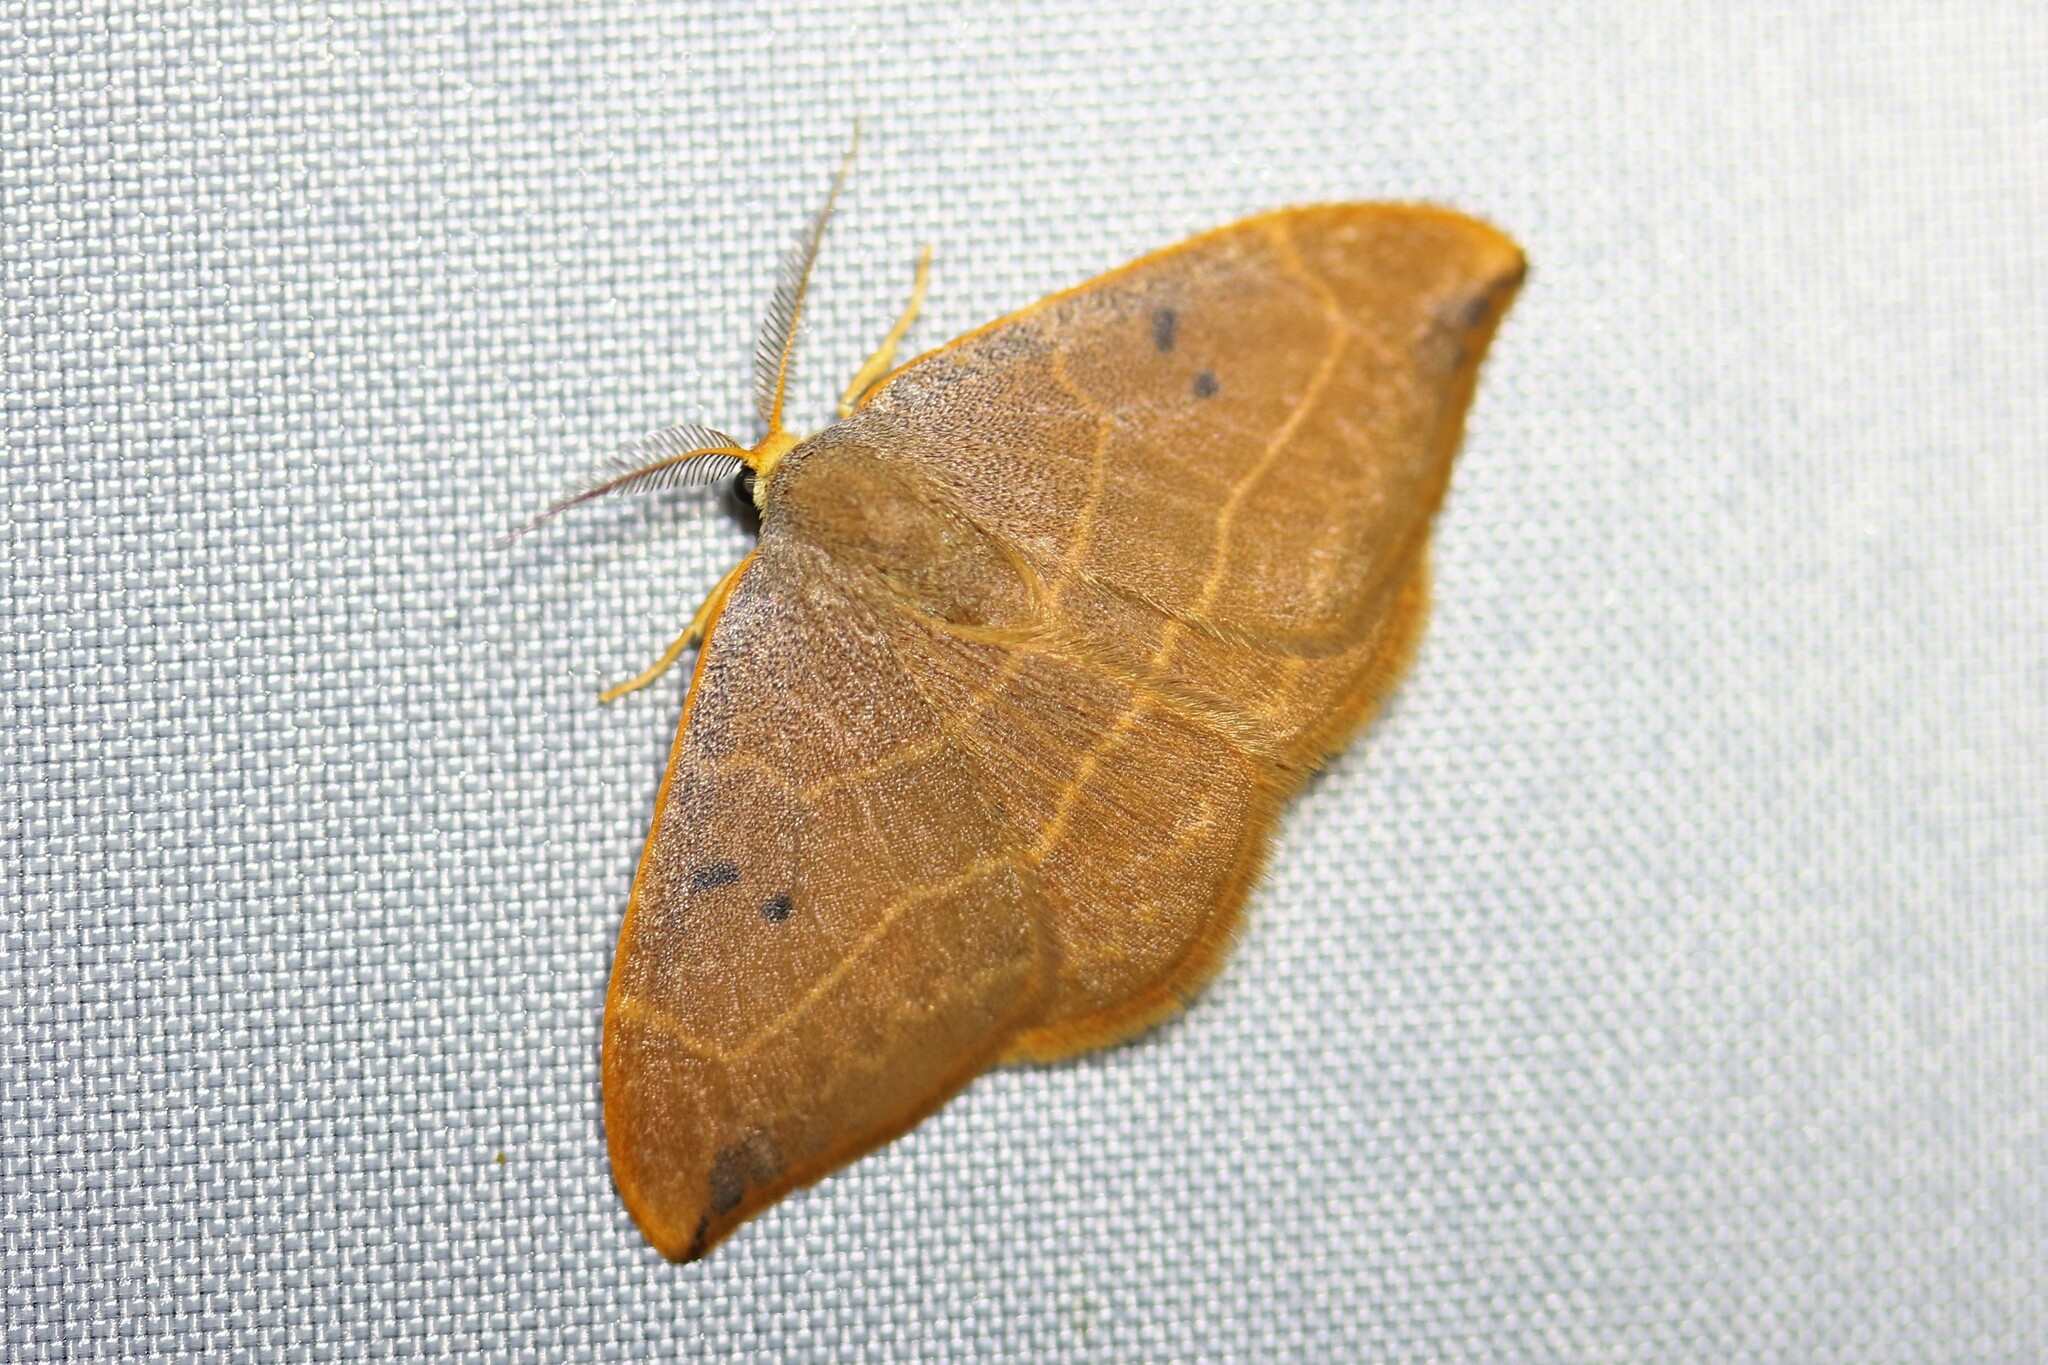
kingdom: Animalia
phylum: Arthropoda
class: Insecta
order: Lepidoptera
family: Drepanidae
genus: Watsonalla
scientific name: Watsonalla binaria
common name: Oak hook-tip
